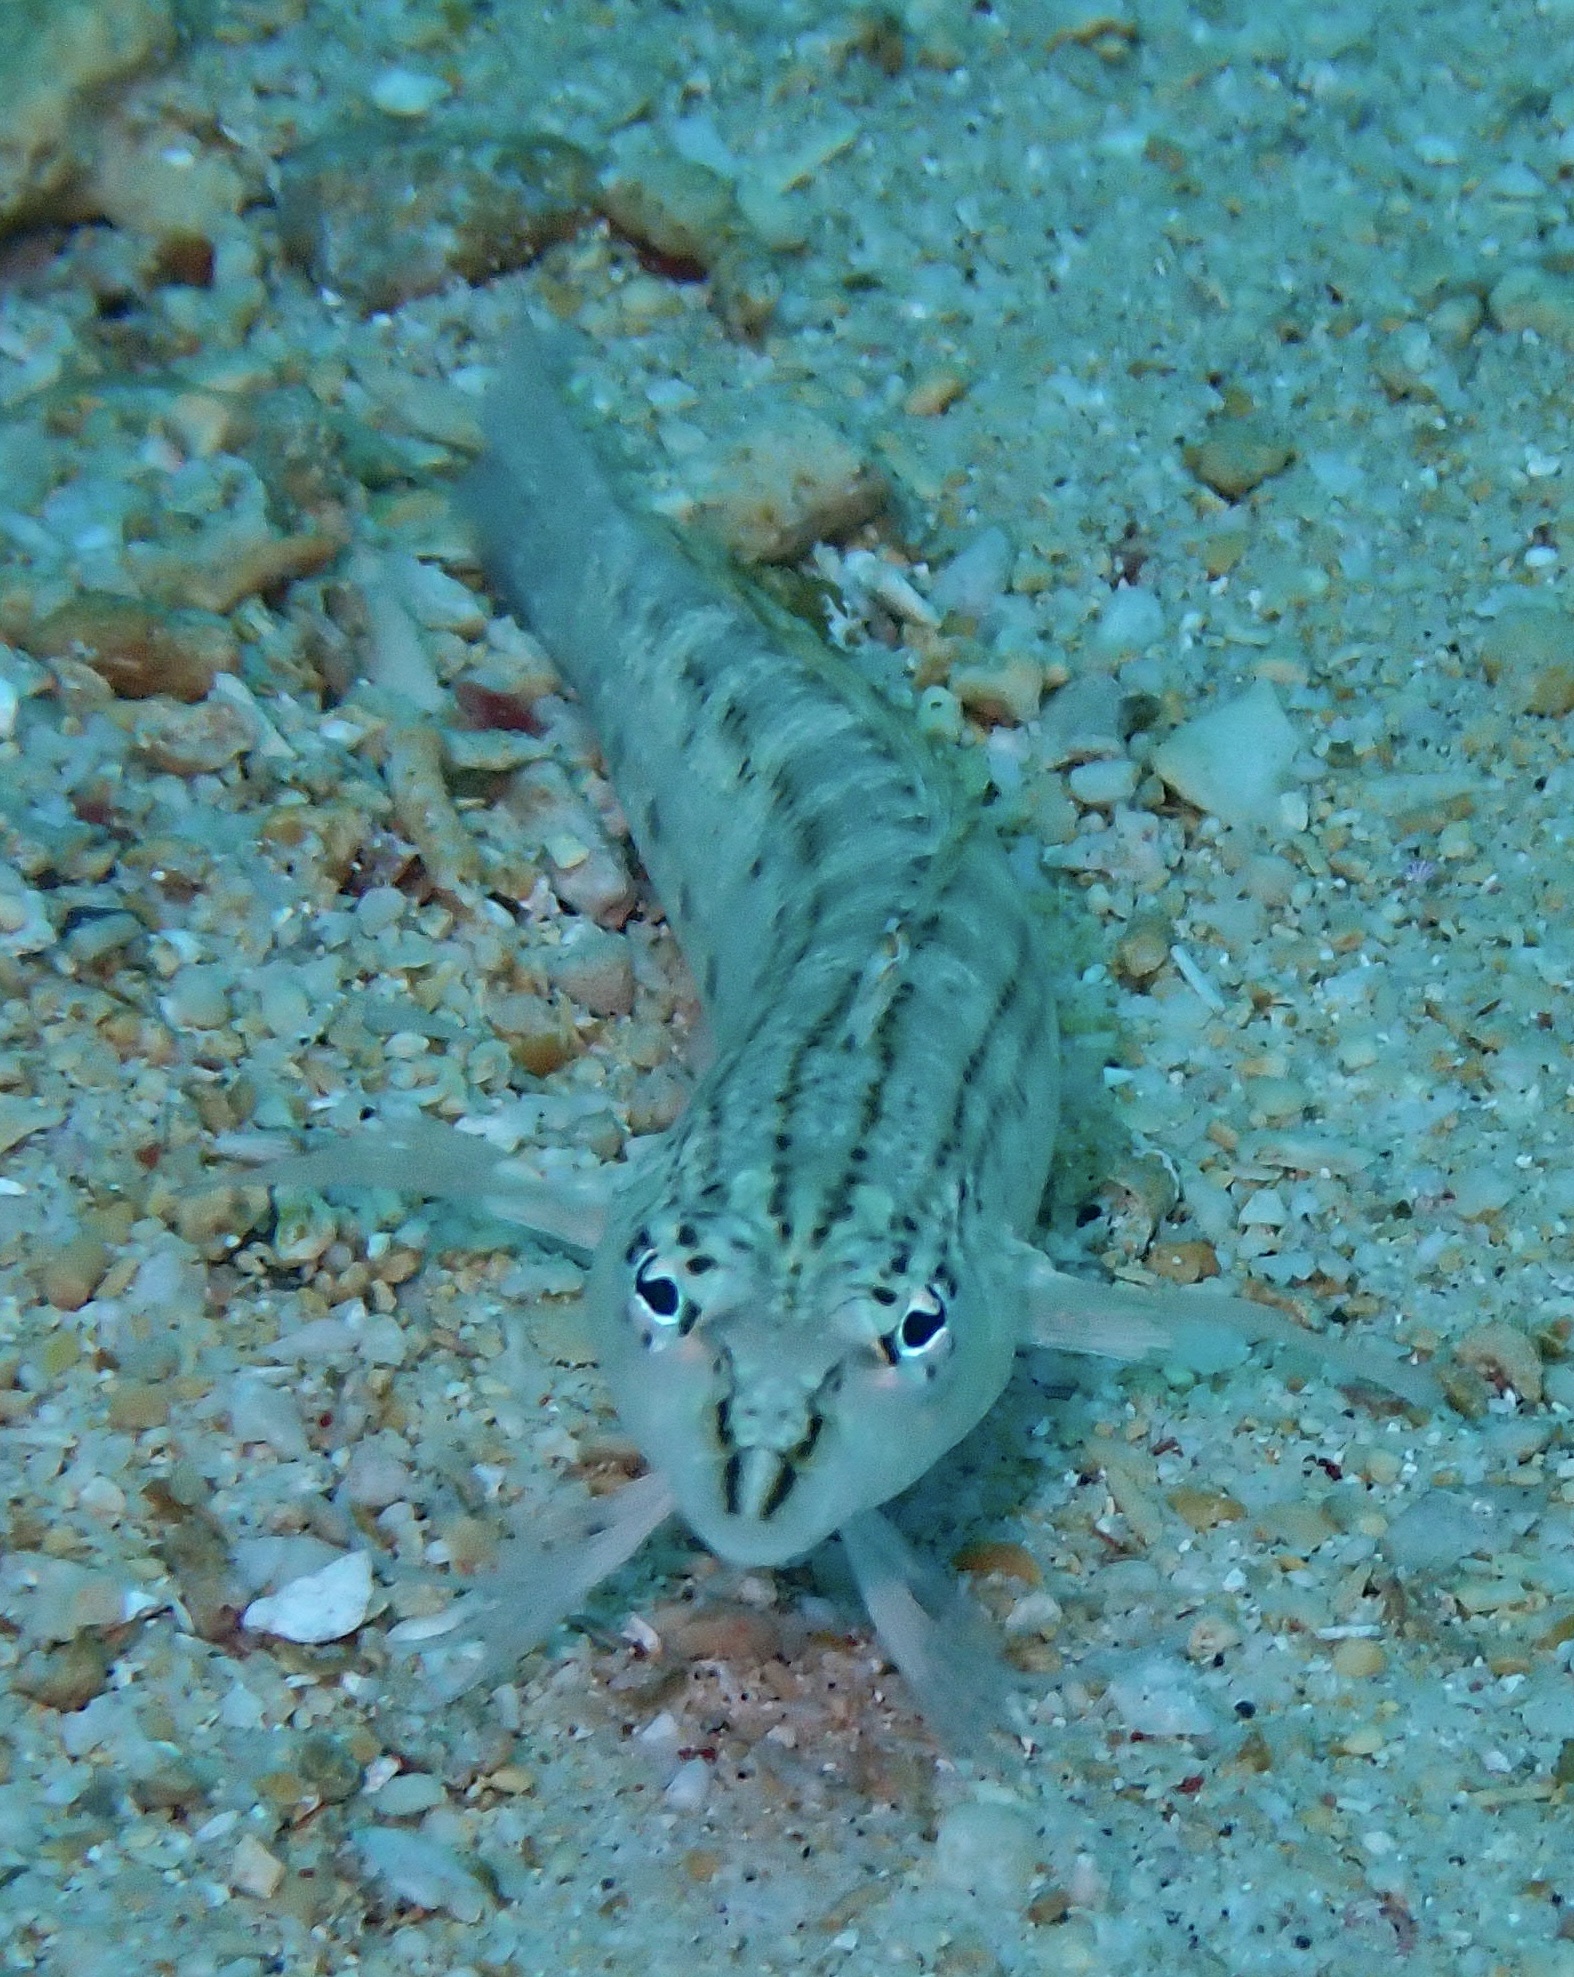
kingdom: Animalia
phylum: Chordata
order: Perciformes
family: Pinguipedidae
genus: Parapercis
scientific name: Parapercis lineopunctata
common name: Nosestripe sandperch
